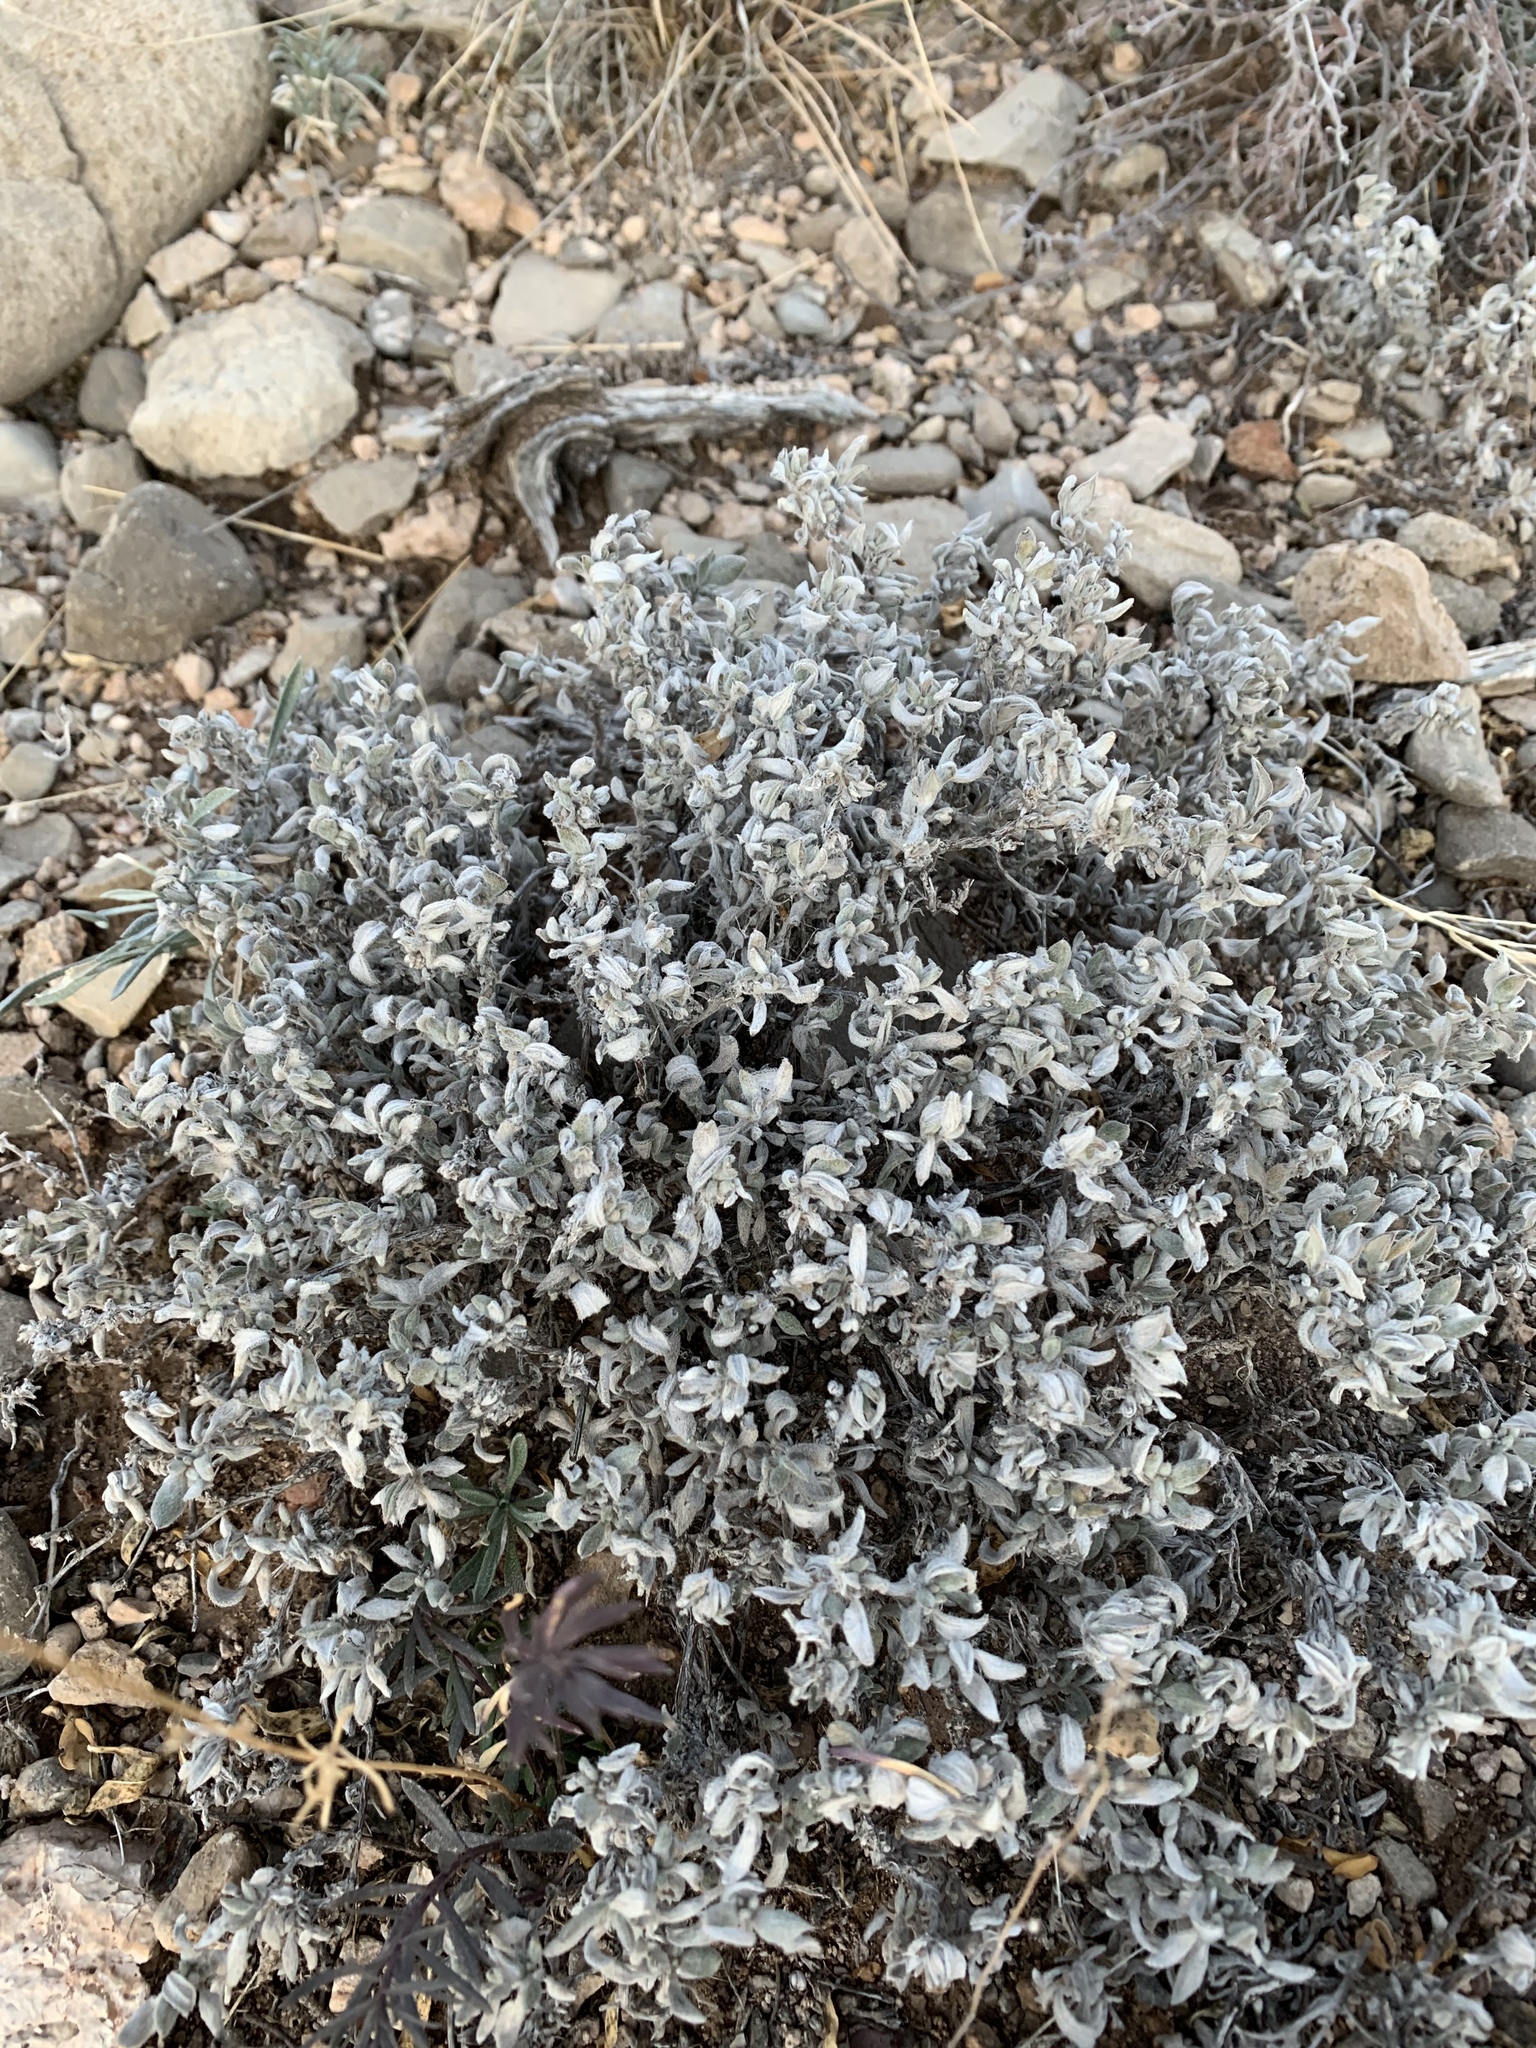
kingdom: Plantae
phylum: Tracheophyta
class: Magnoliopsida
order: Boraginales
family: Ehretiaceae
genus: Tiquilia
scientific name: Tiquilia canescens
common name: Hairy tiquilia
